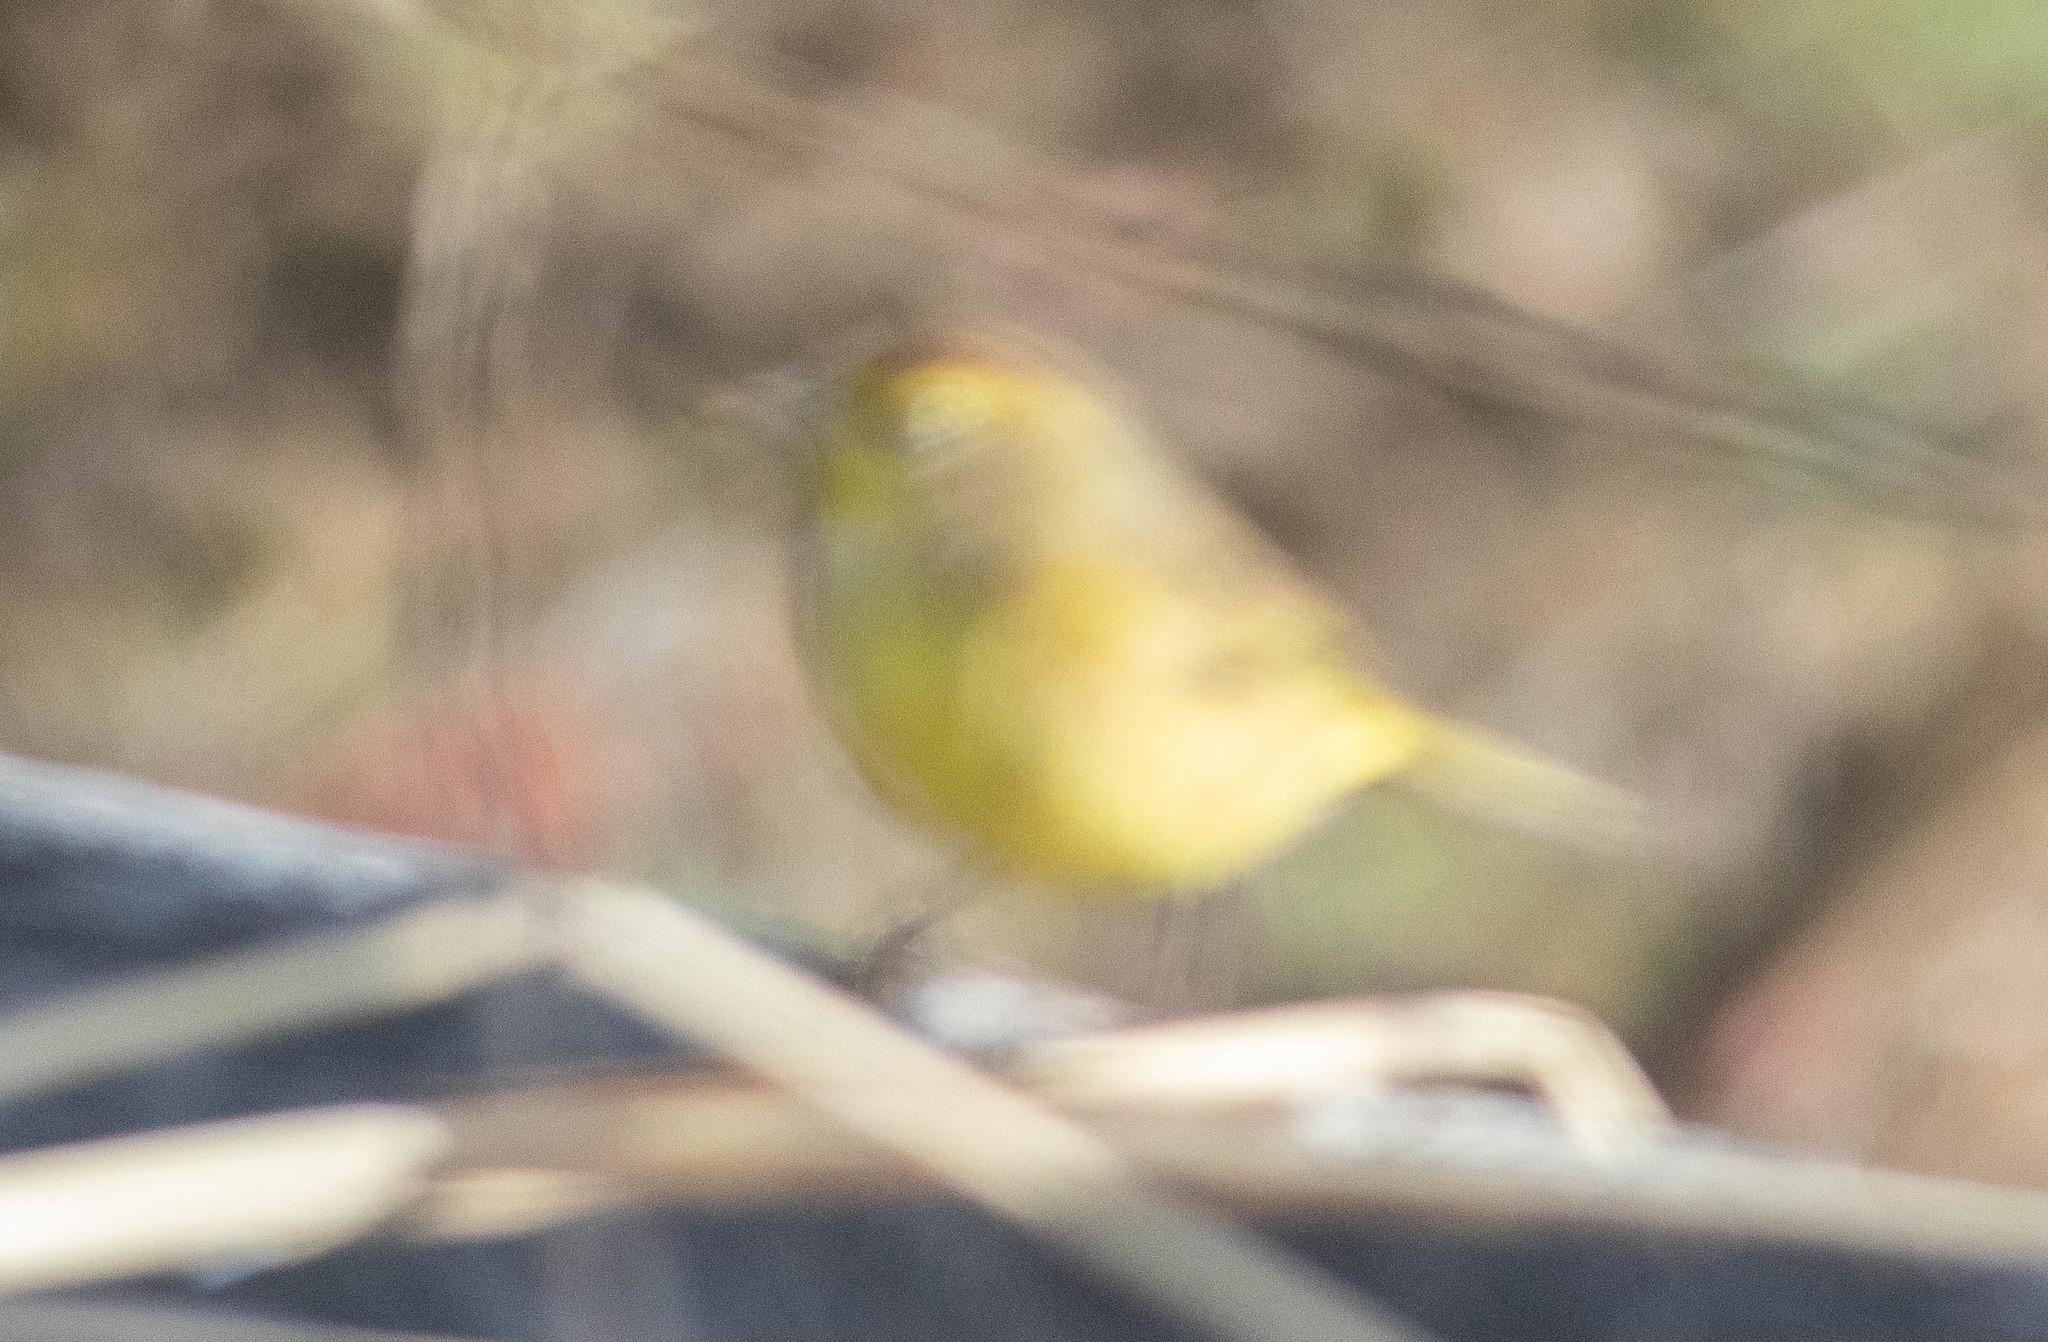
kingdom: Animalia
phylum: Chordata
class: Aves
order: Passeriformes
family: Parulidae
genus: Setophaga
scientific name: Setophaga palmarum
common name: Palm warbler
